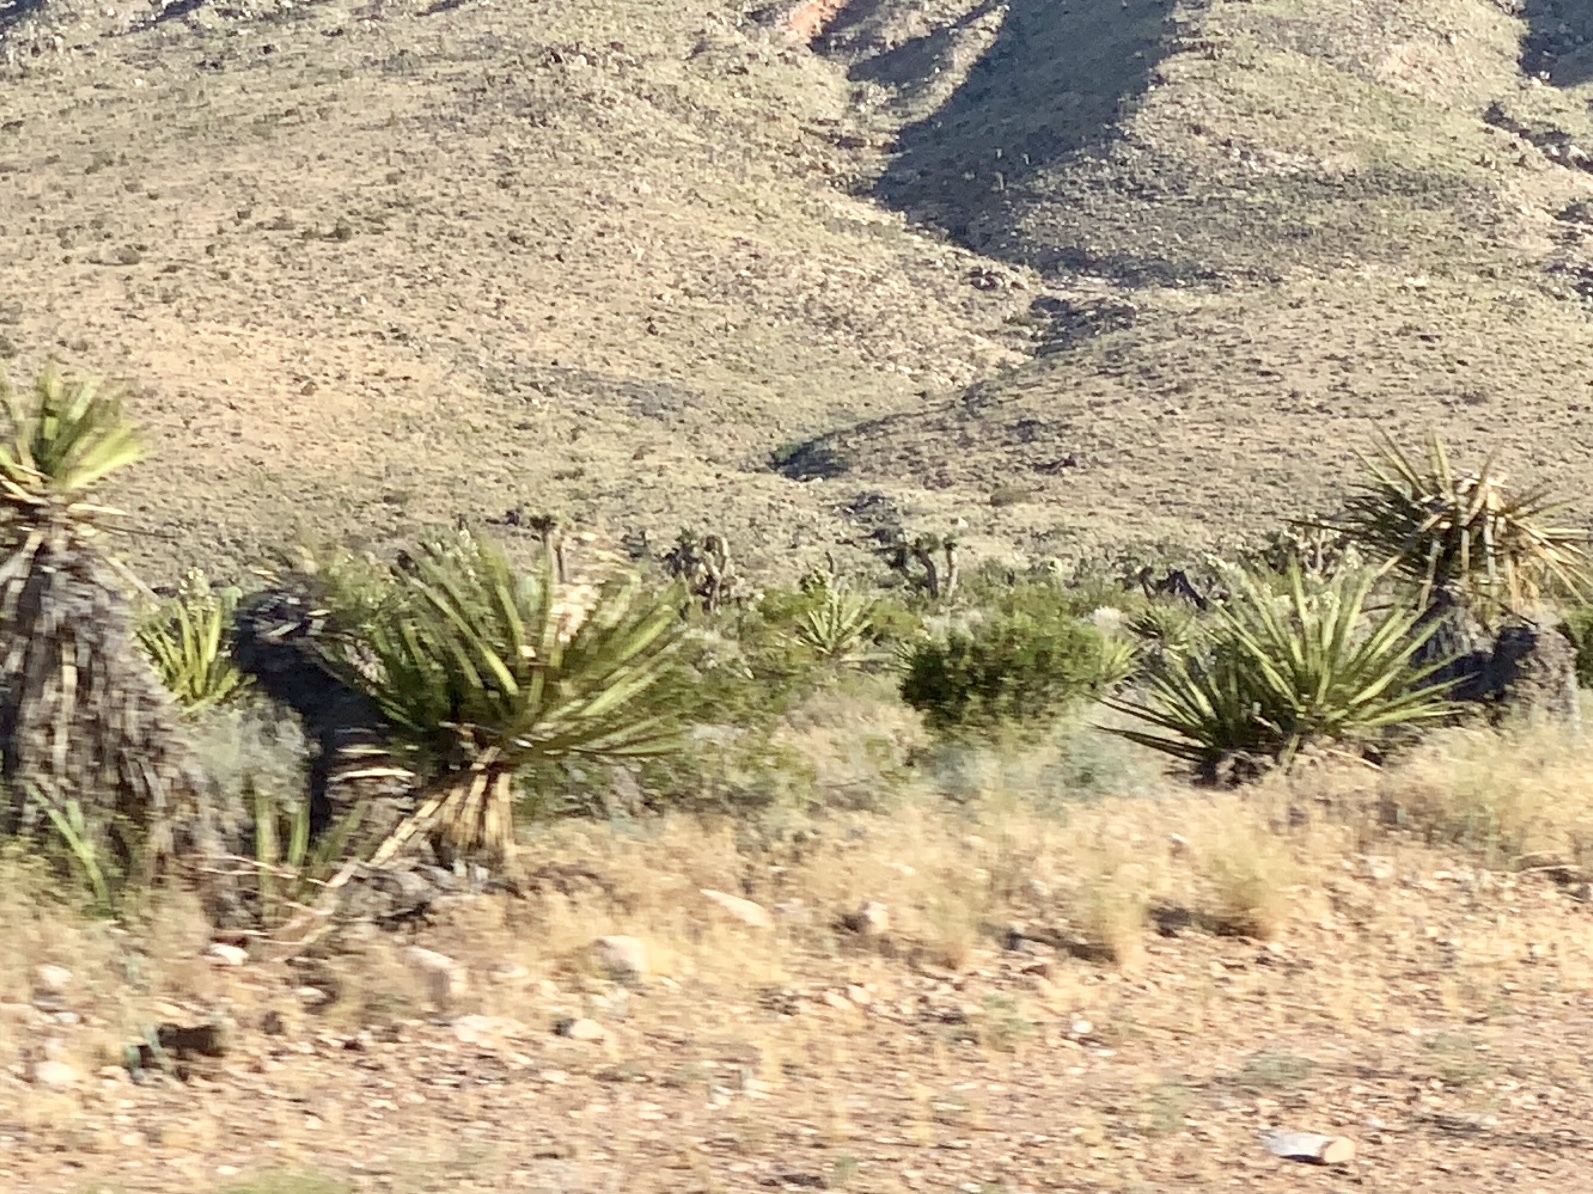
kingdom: Plantae
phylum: Tracheophyta
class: Liliopsida
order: Asparagales
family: Asparagaceae
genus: Yucca
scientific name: Yucca schidigera
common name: Mojave yucca
